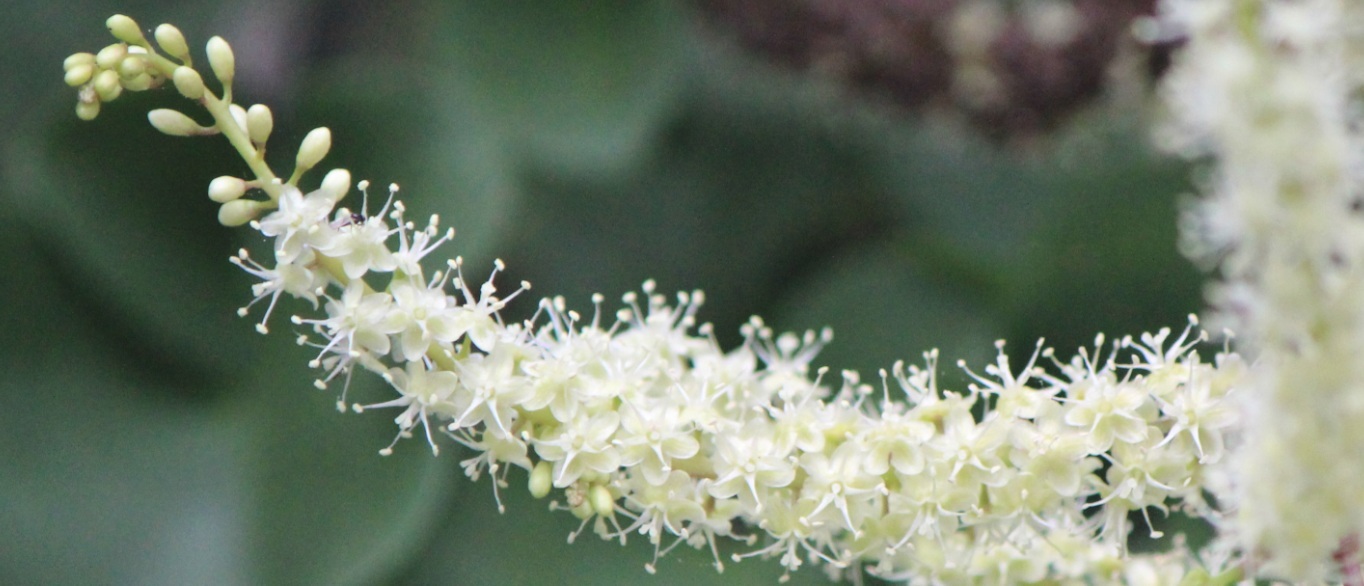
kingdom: Plantae
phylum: Tracheophyta
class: Magnoliopsida
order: Caryophyllales
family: Basellaceae
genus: Anredera
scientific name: Anredera cordifolia
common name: Heartleaf madeiravine
